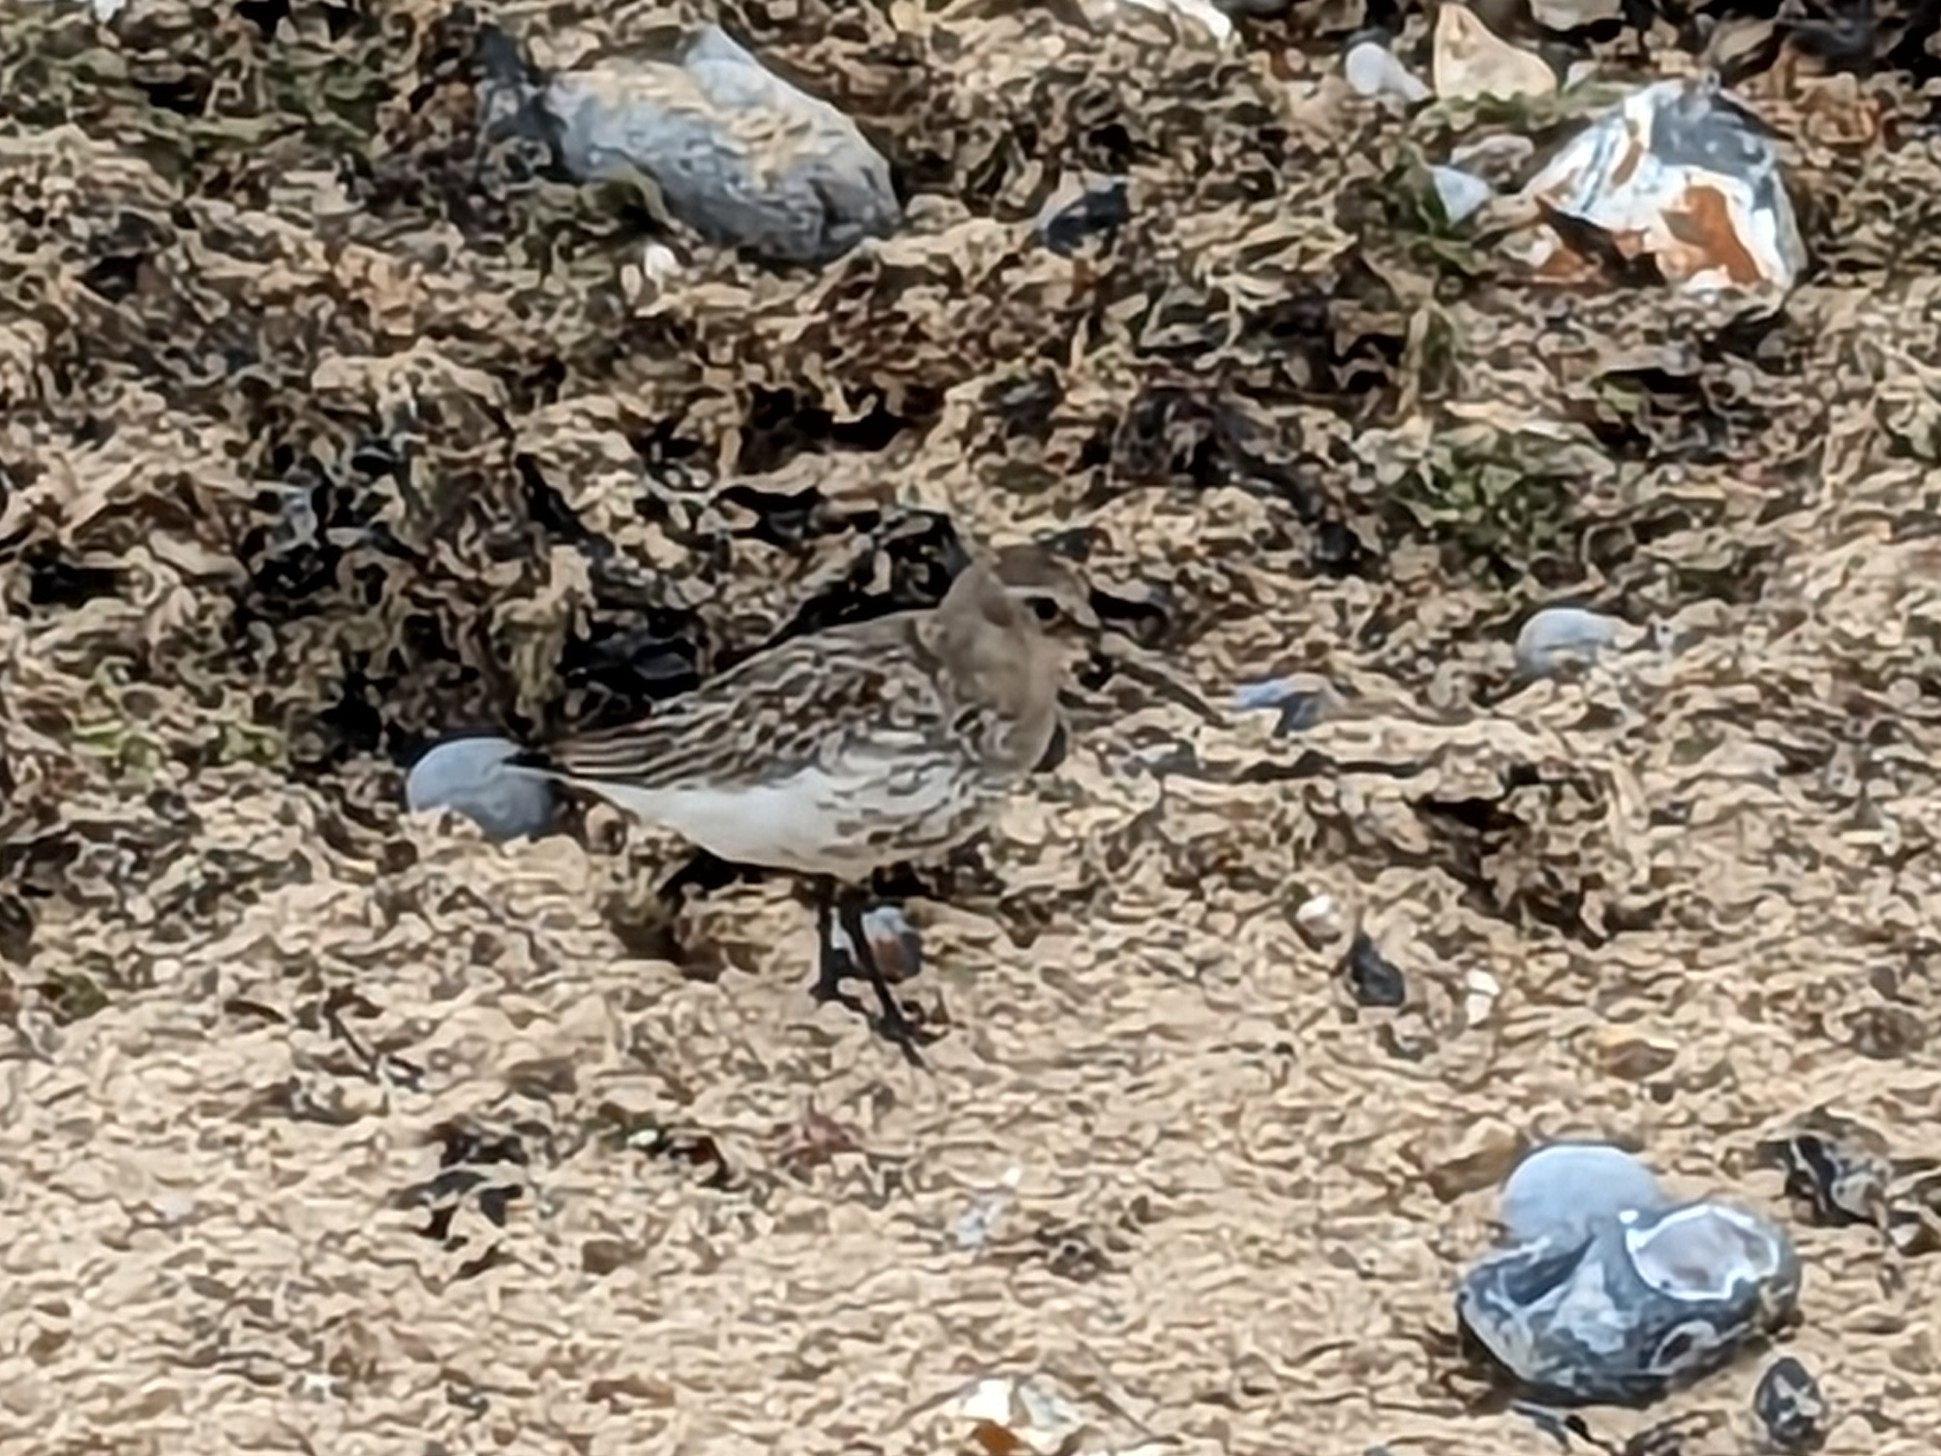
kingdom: Animalia
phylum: Chordata
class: Aves
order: Charadriiformes
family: Scolopacidae
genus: Calidris
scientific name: Calidris alpina
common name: Dunlin
